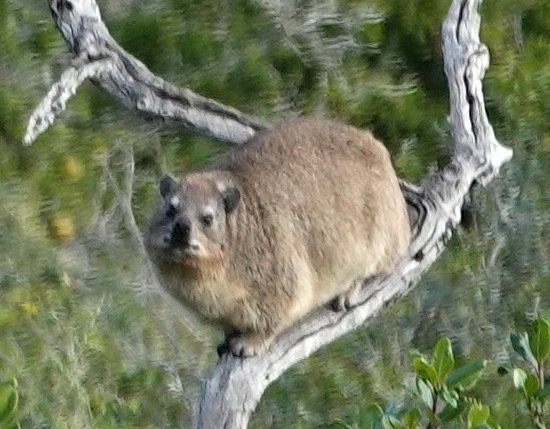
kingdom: Animalia
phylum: Chordata
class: Mammalia
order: Hyracoidea
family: Procaviidae
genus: Procavia
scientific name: Procavia capensis
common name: Rock hyrax
